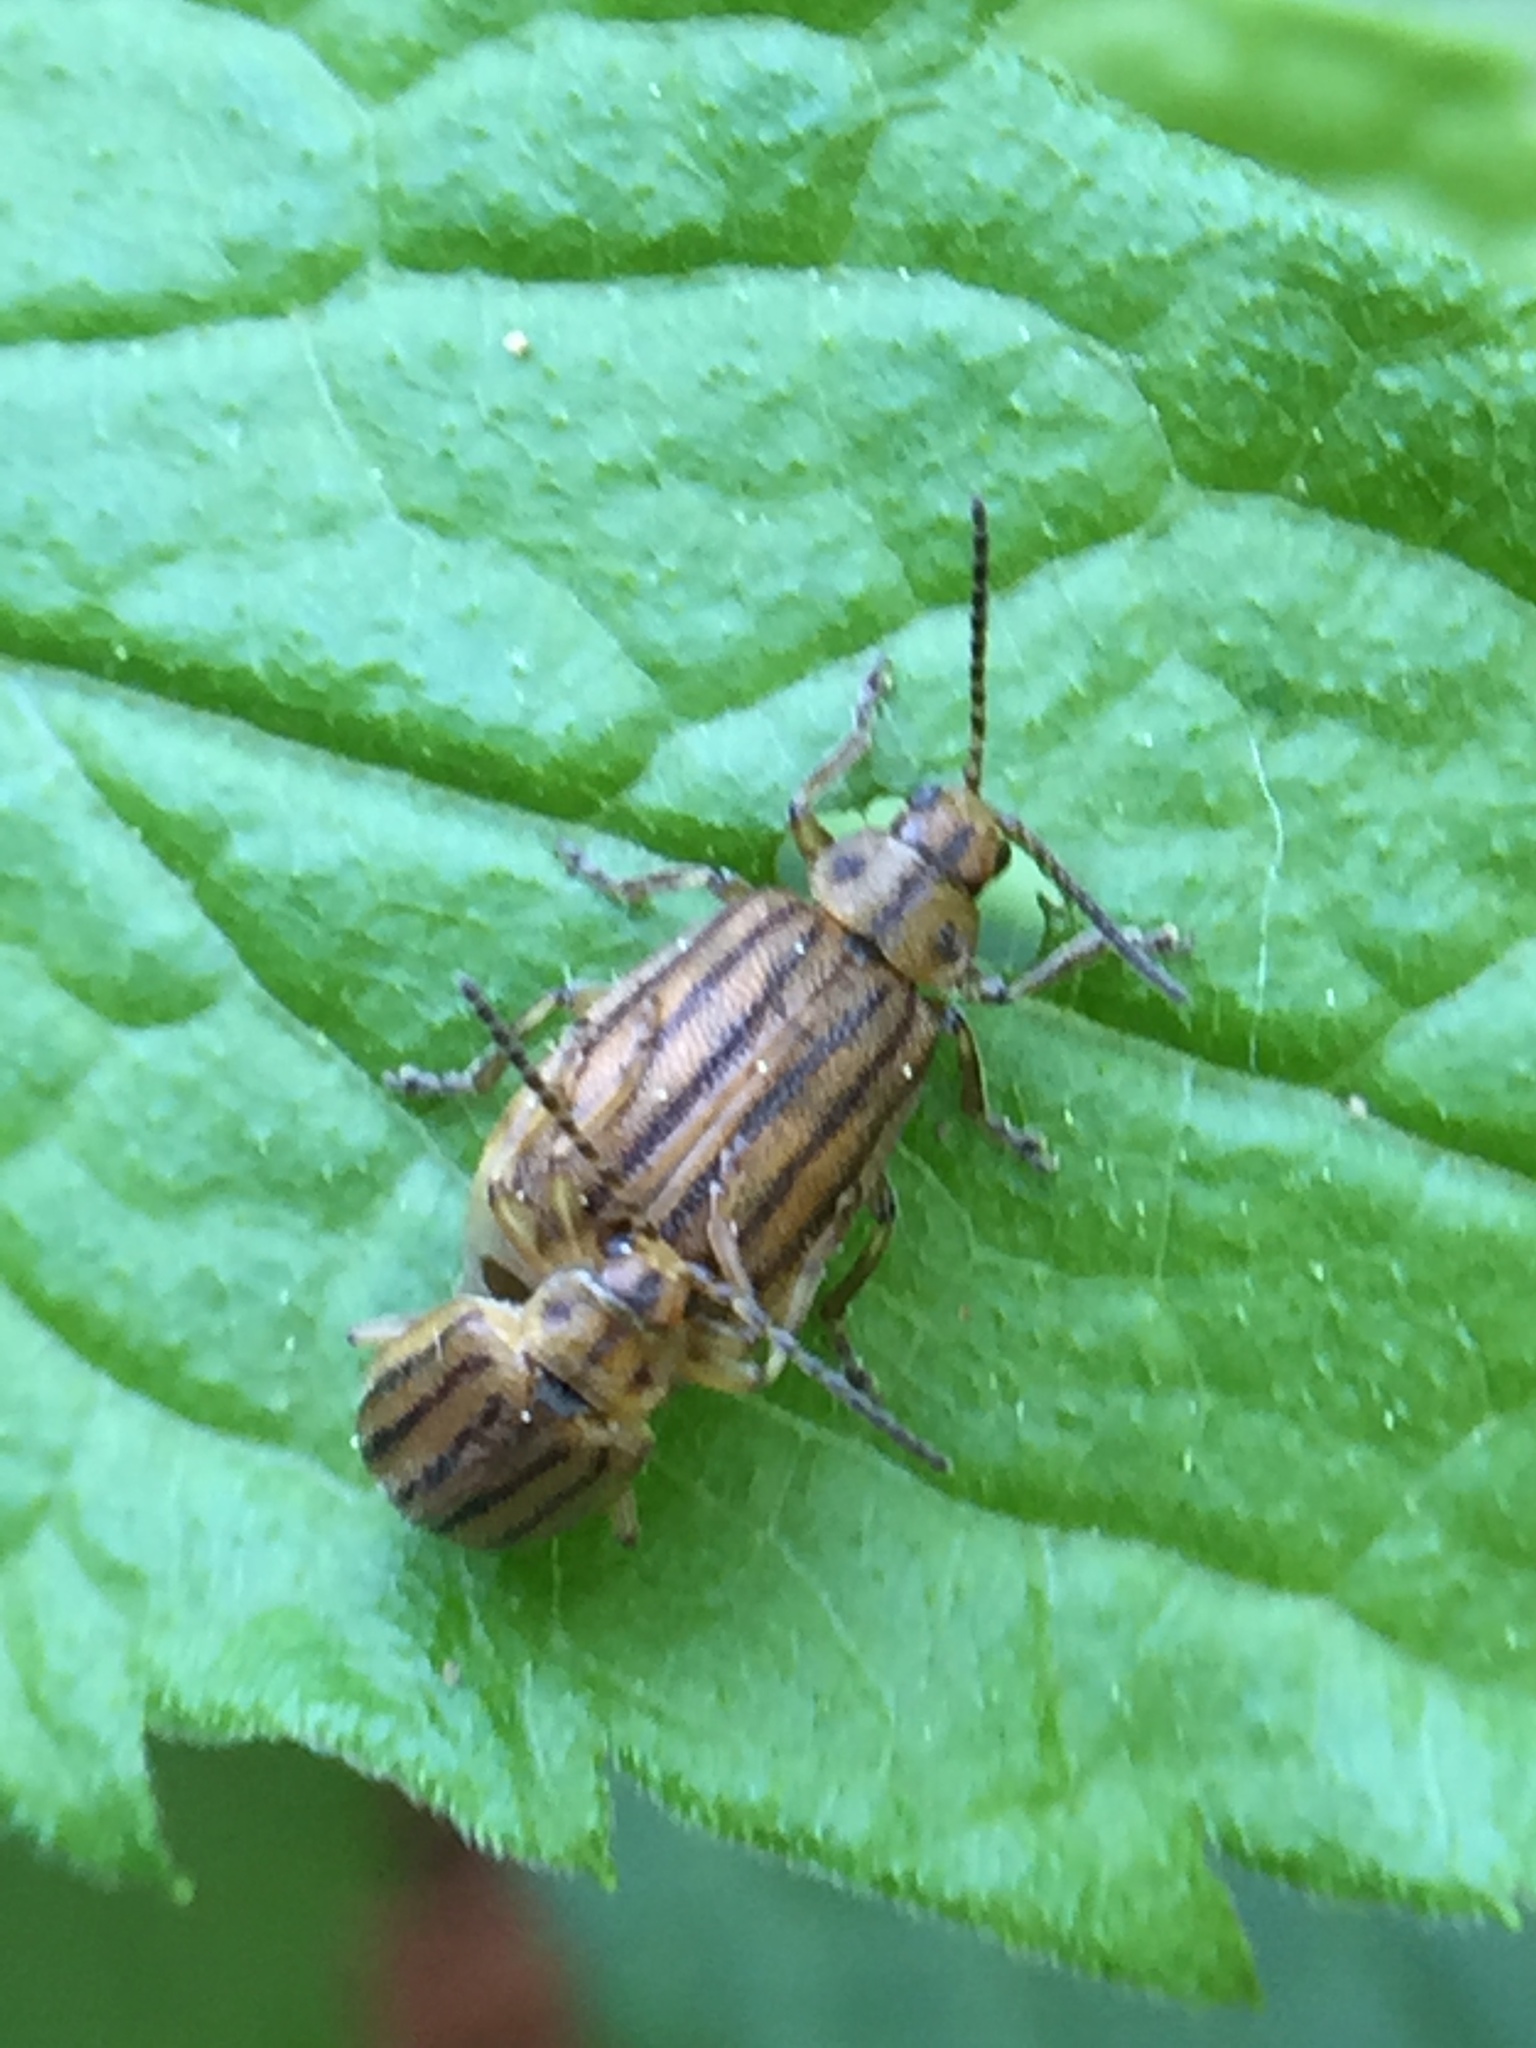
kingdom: Animalia
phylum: Arthropoda
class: Insecta
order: Coleoptera
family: Chrysomelidae
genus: Ophraella
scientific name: Ophraella conferta
